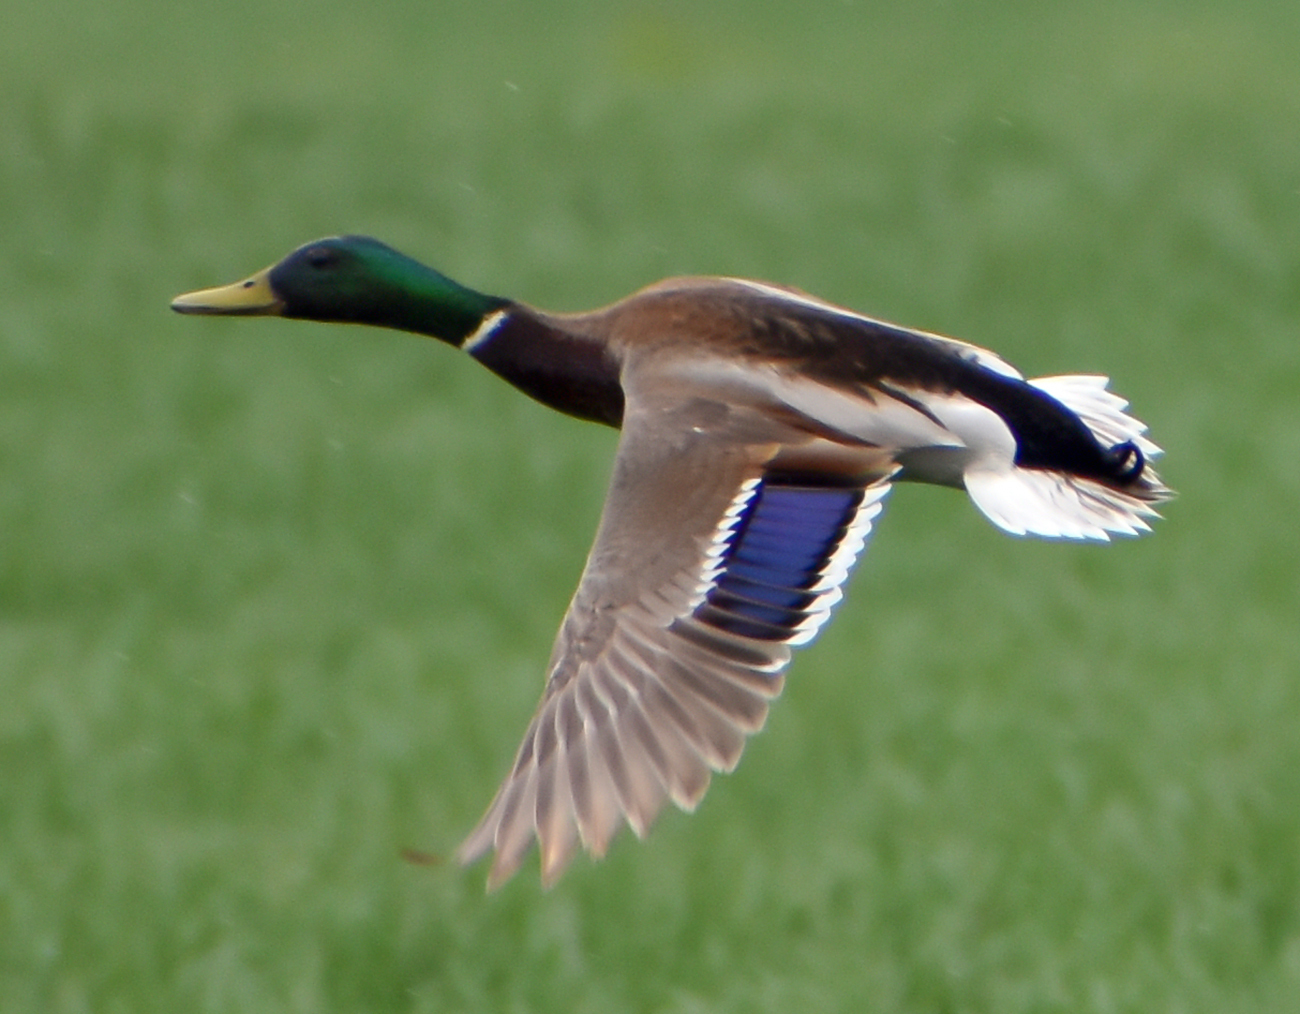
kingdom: Animalia
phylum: Chordata
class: Aves
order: Anseriformes
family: Anatidae
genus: Anas
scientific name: Anas platyrhynchos
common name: Mallard
